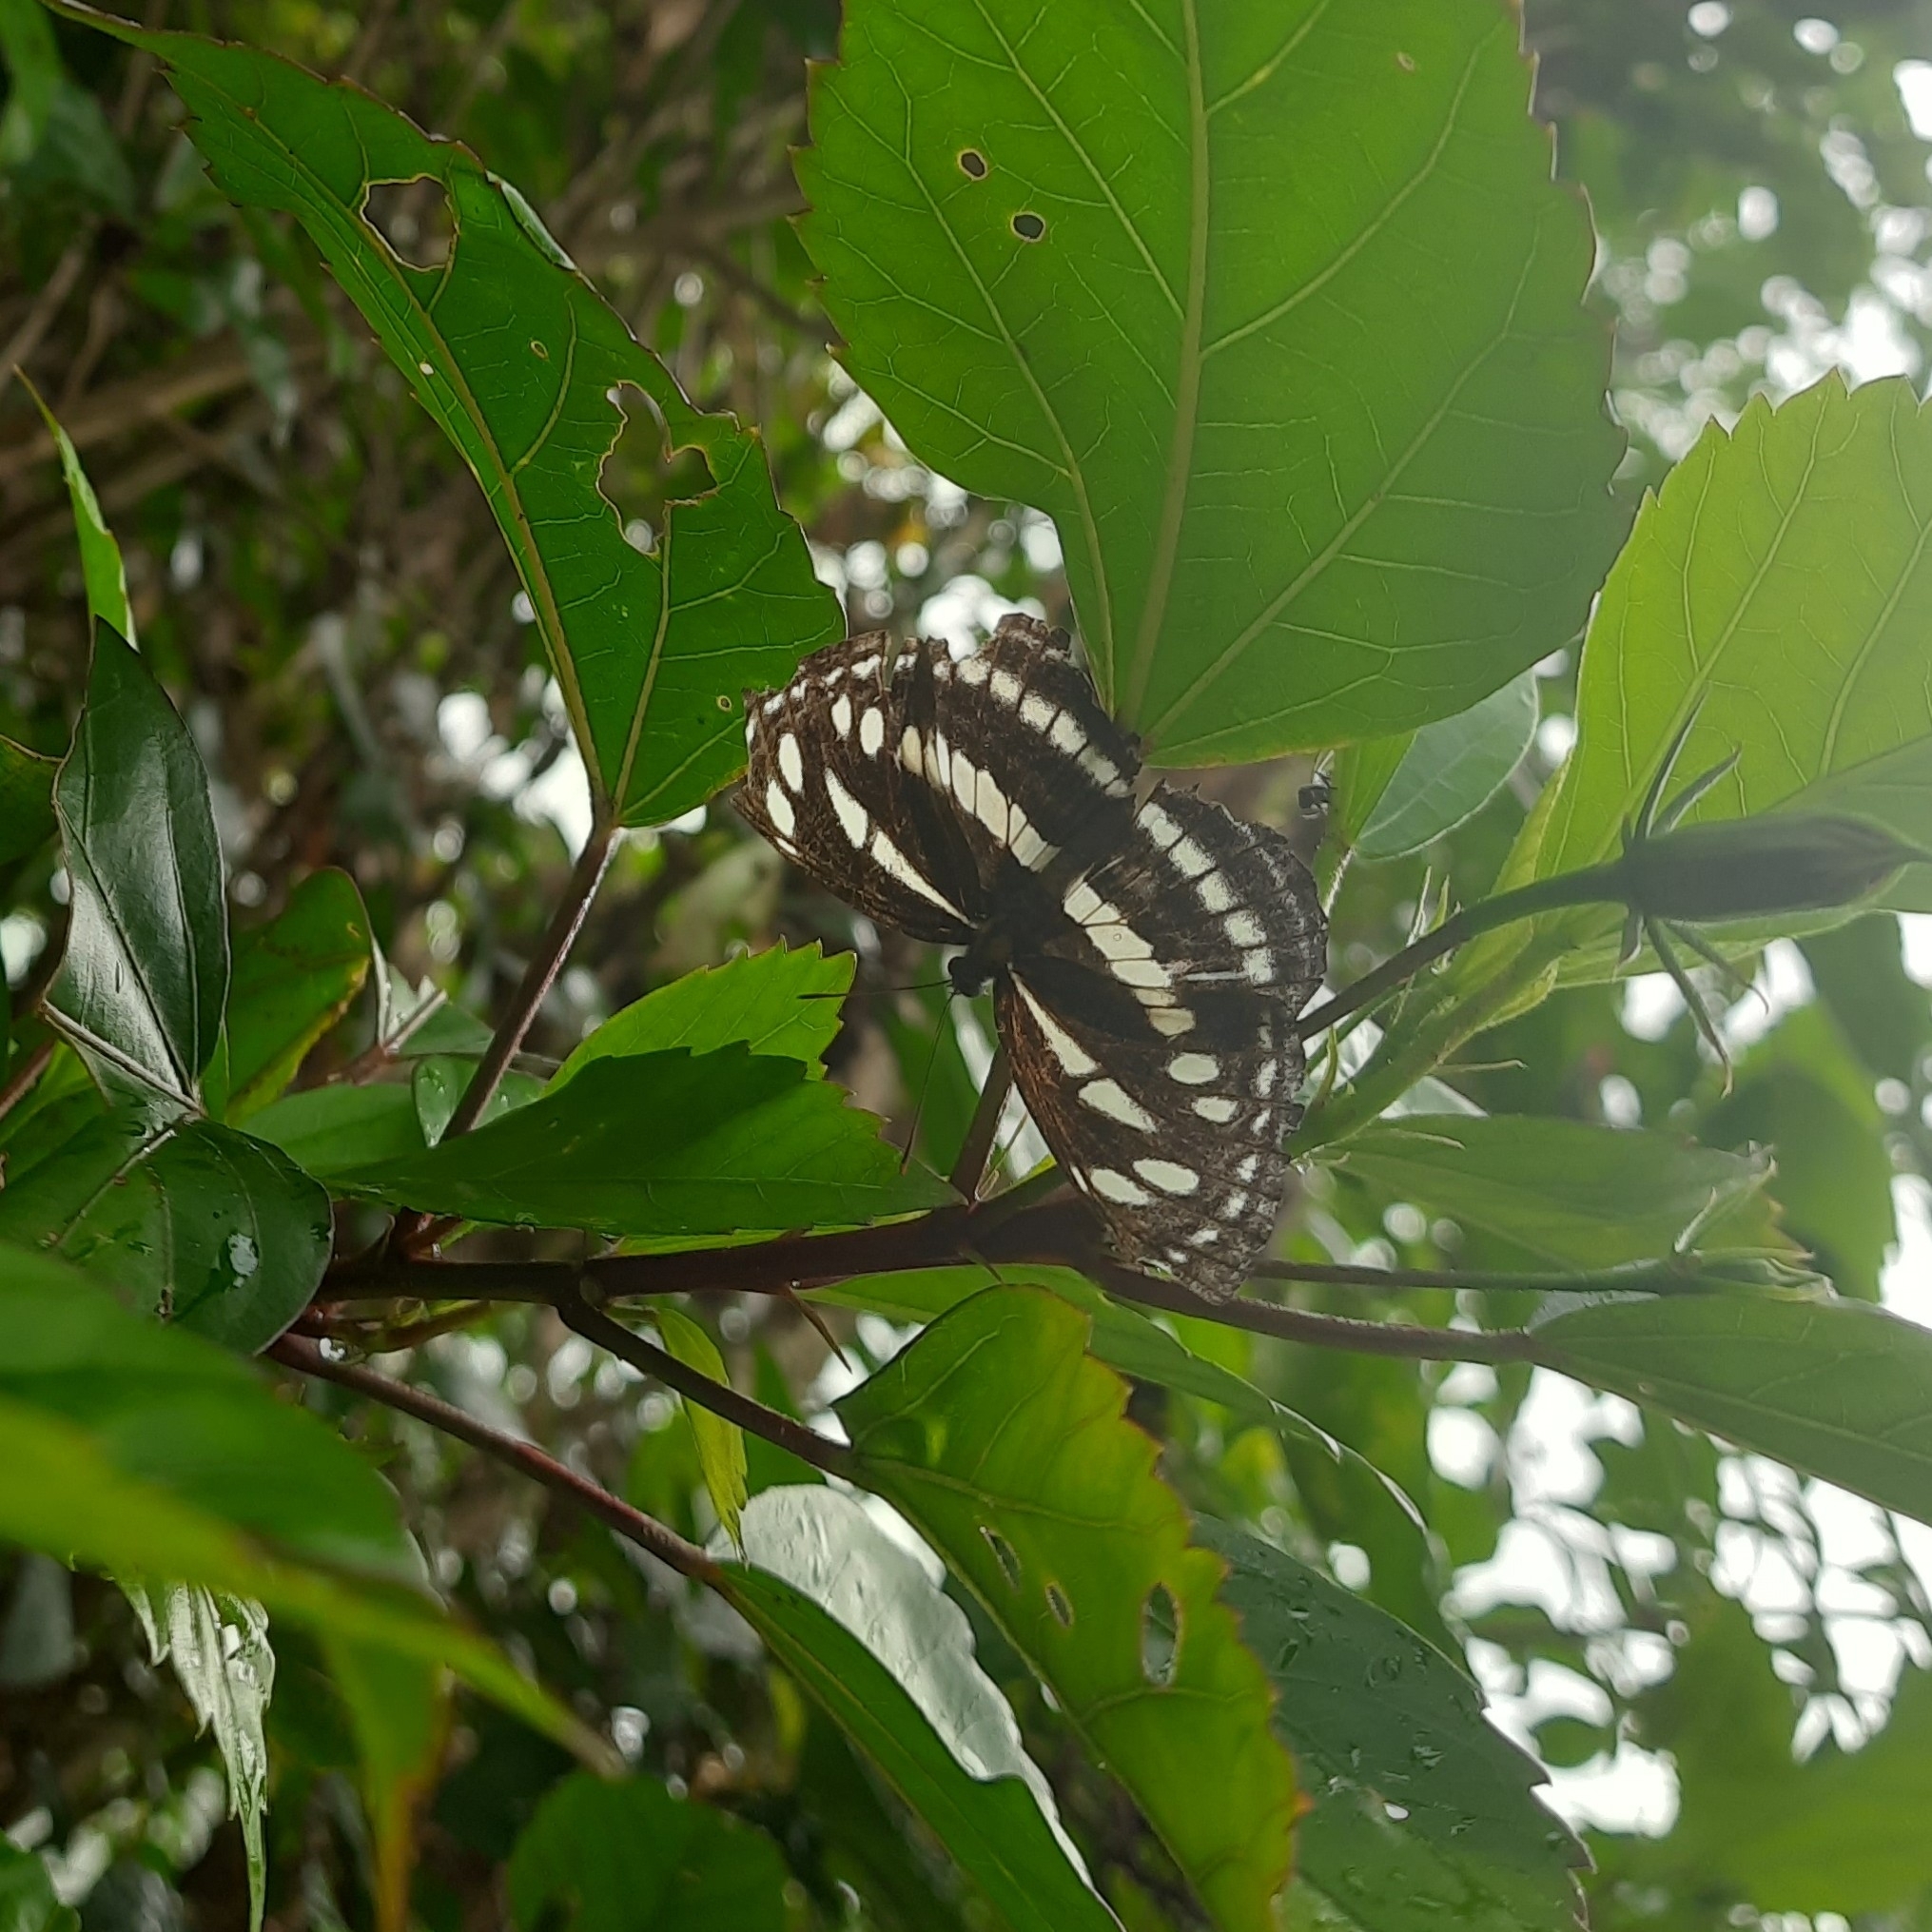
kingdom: Animalia
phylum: Arthropoda
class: Insecta
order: Lepidoptera
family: Nymphalidae
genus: Neptis
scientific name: Neptis hylas
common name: Common sailer
